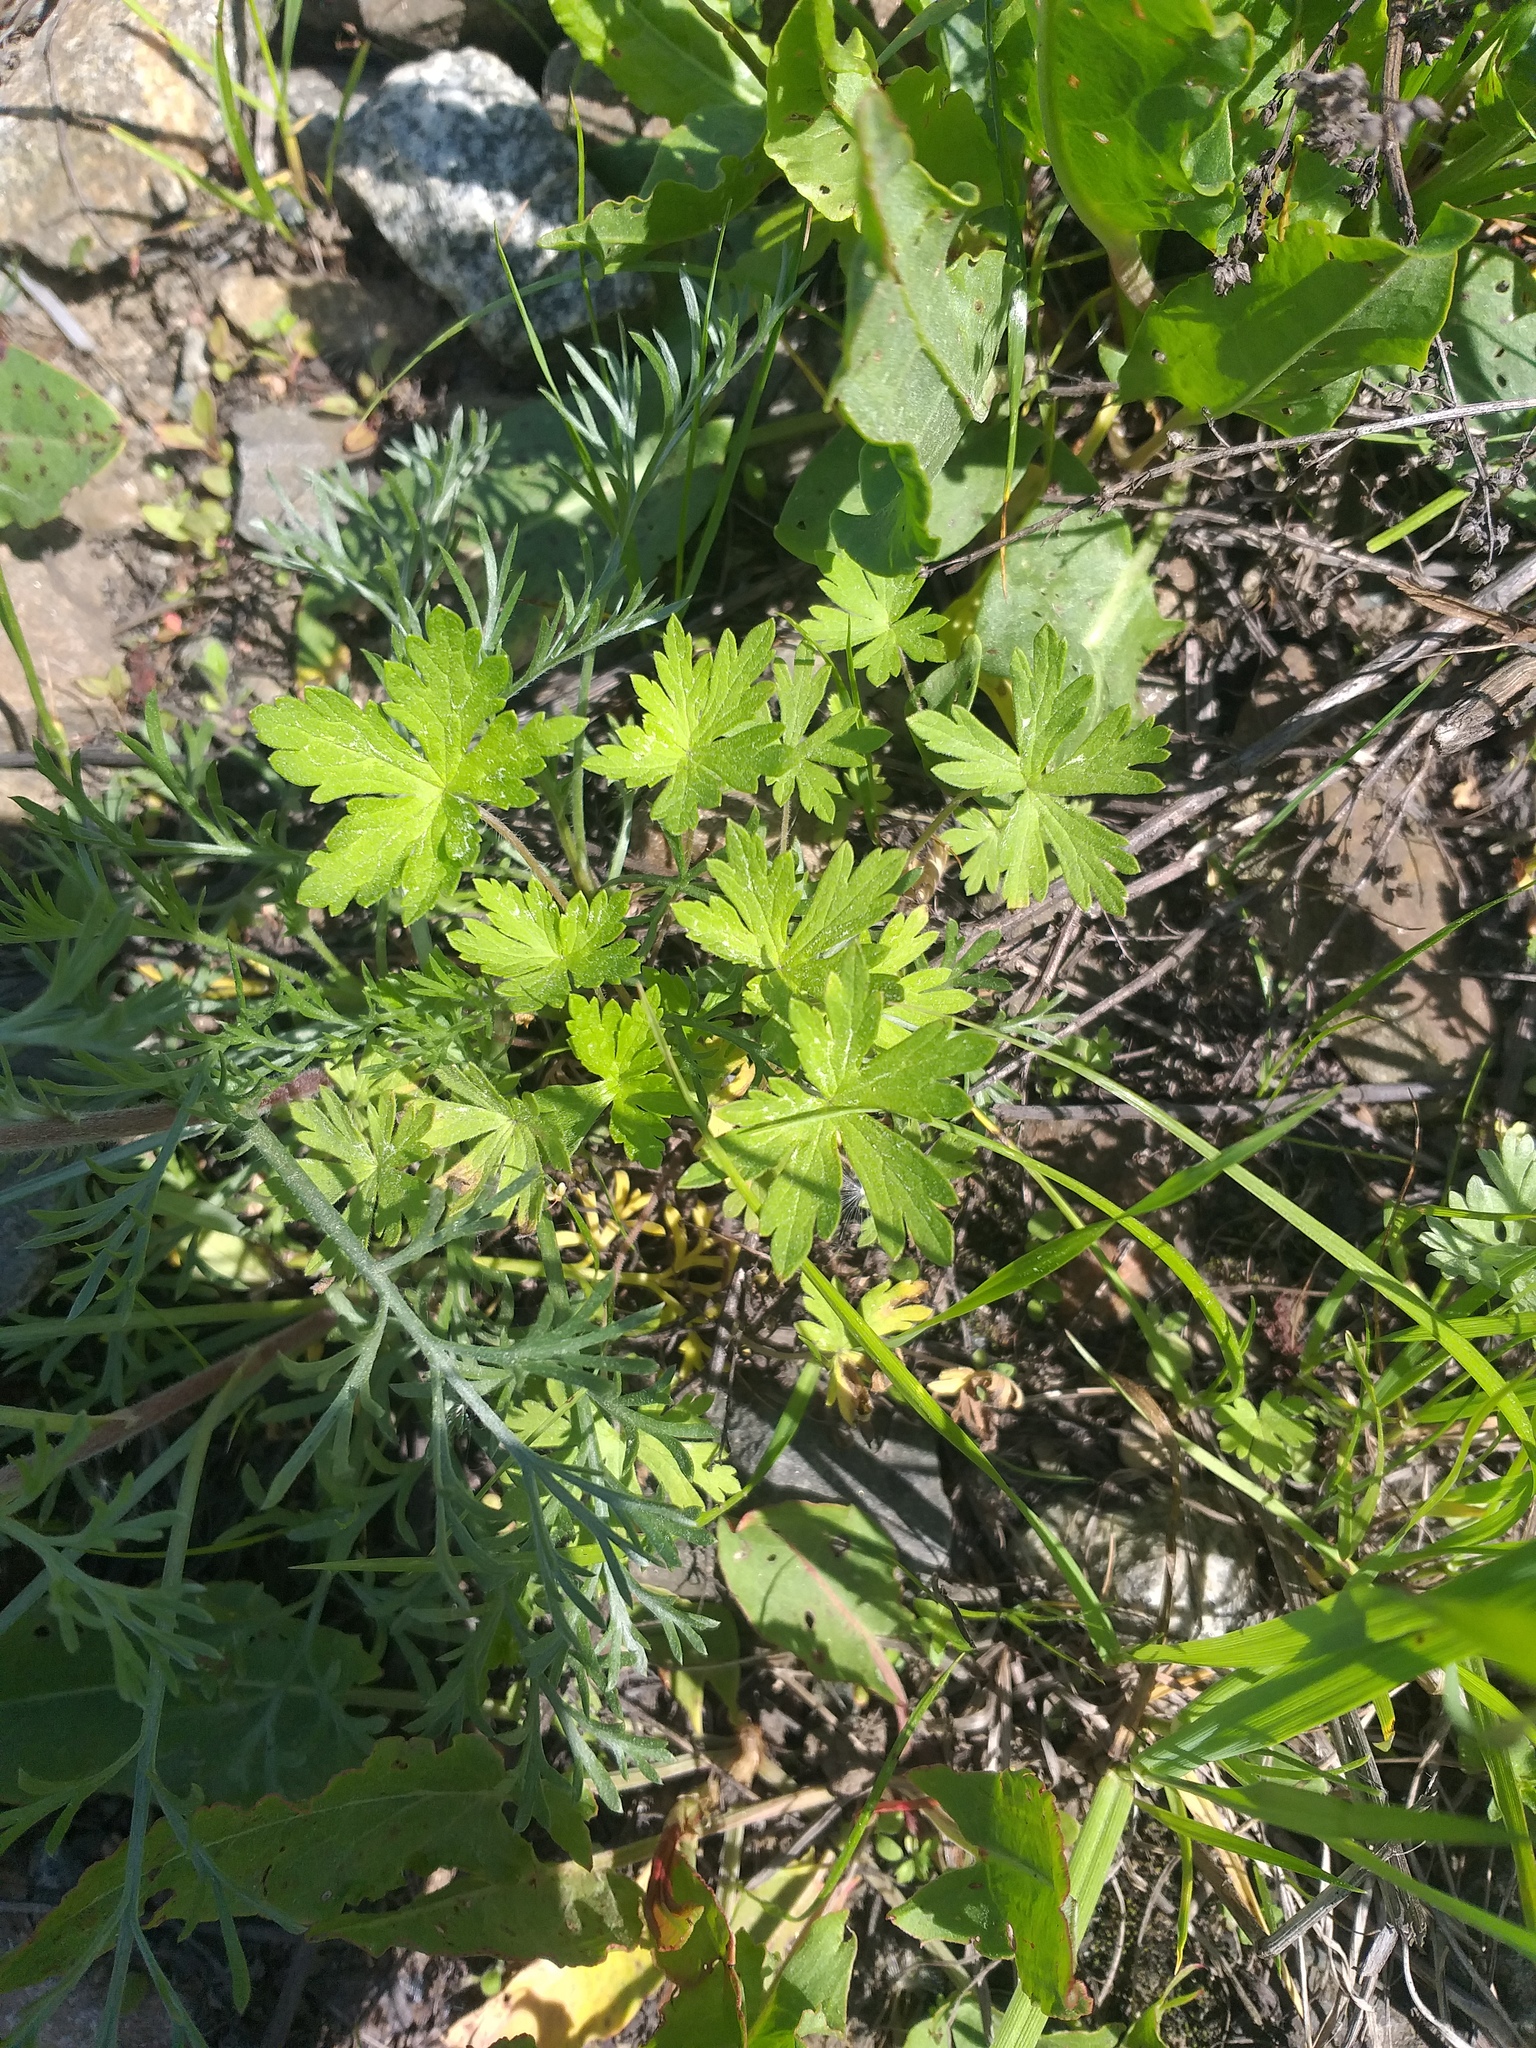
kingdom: Plantae
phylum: Tracheophyta
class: Magnoliopsida
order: Geraniales
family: Geraniaceae
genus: Geranium
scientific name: Geranium sibiricum
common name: Siberian crane's-bill
